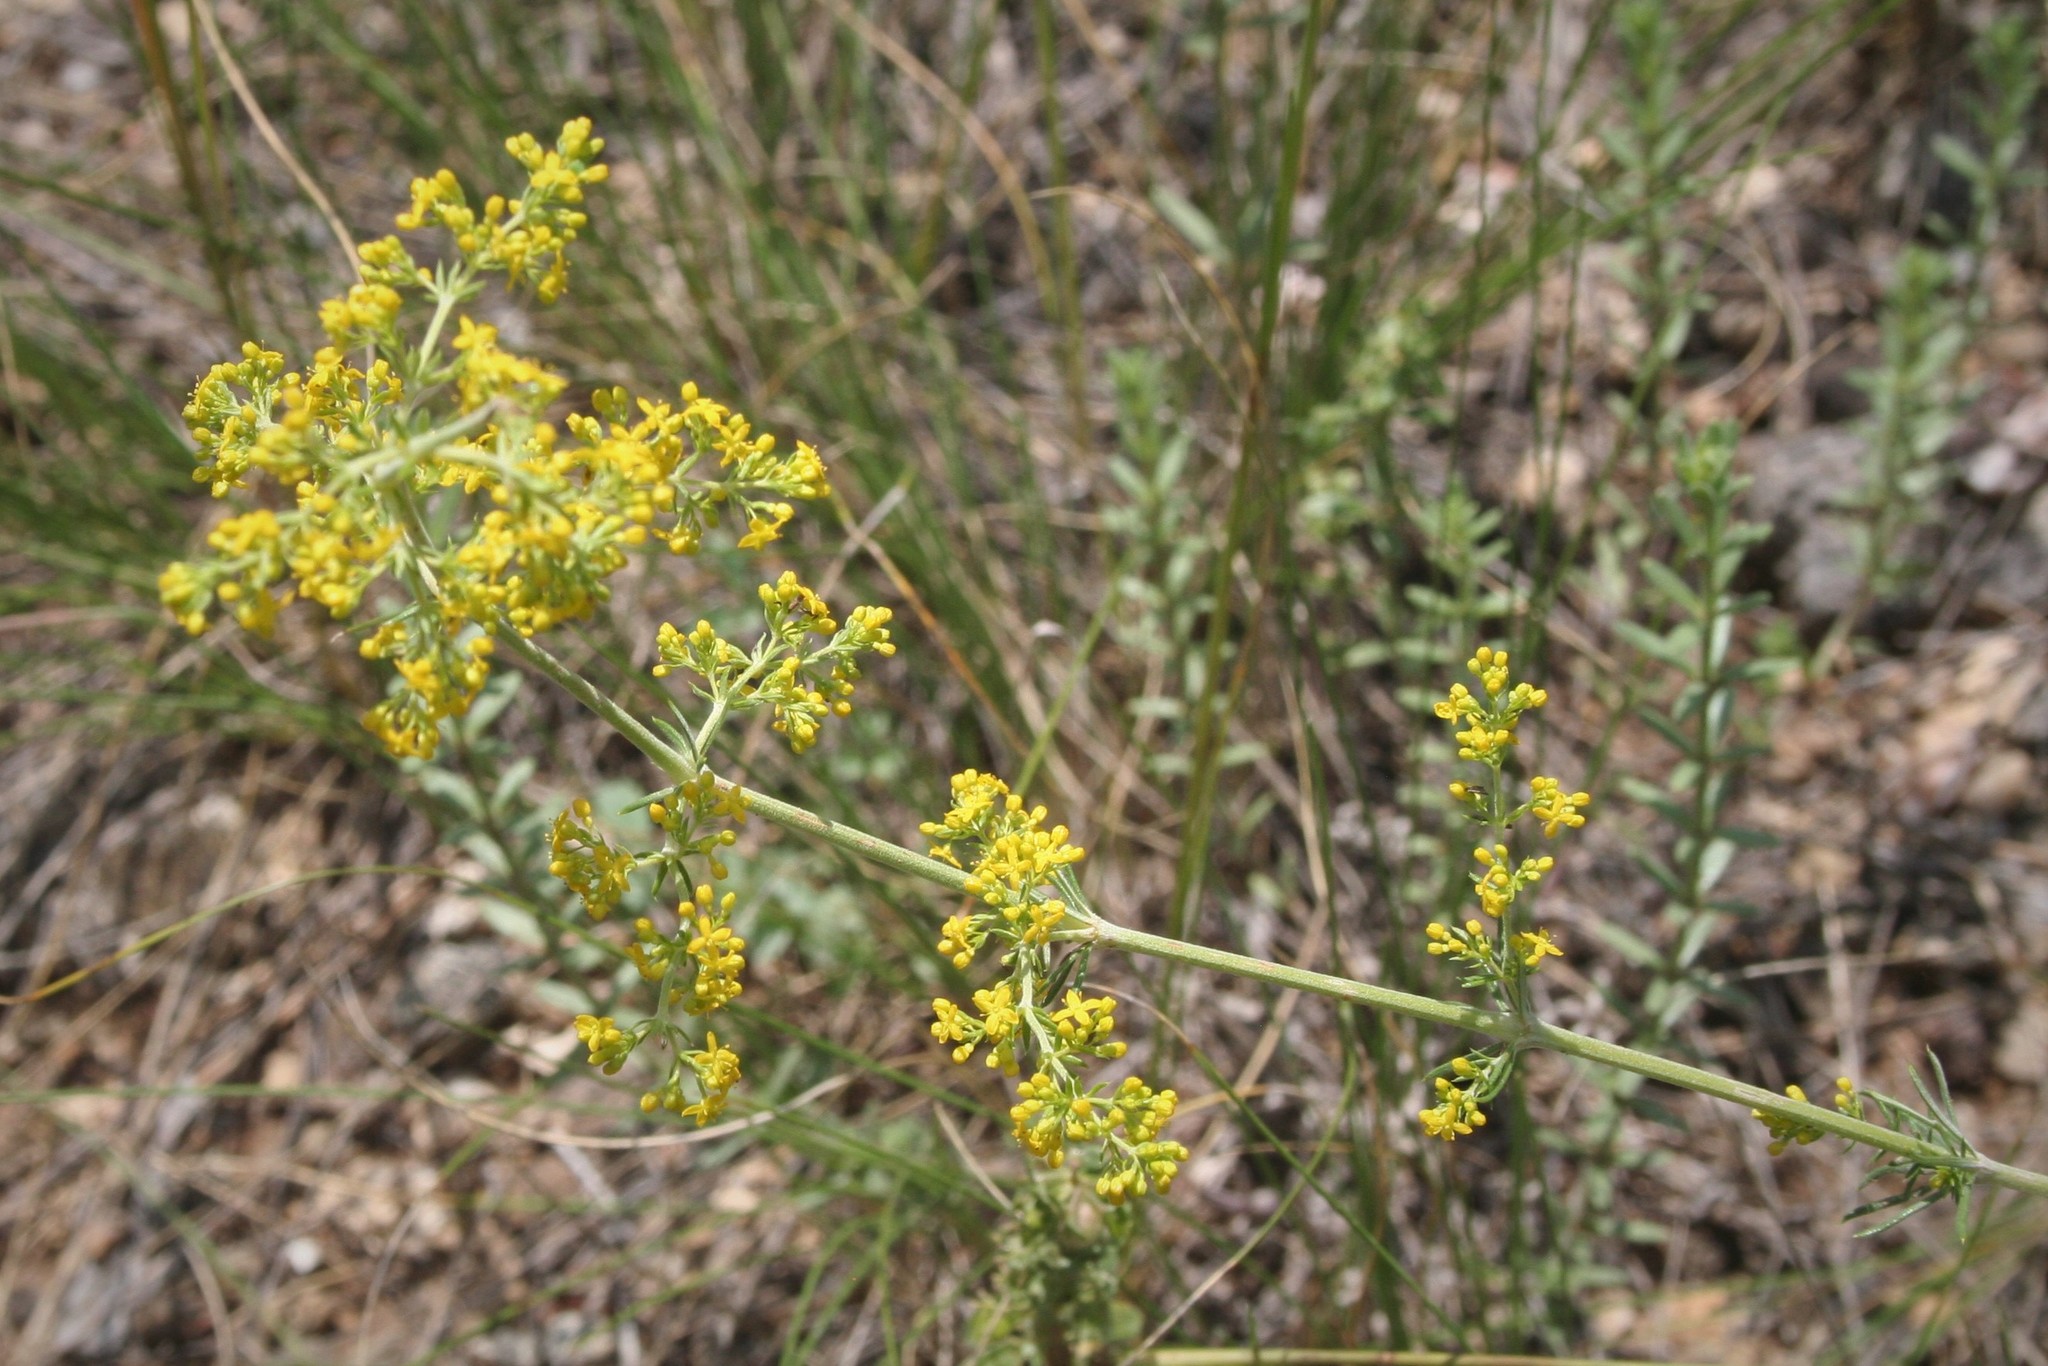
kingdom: Plantae
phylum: Tracheophyta
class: Magnoliopsida
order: Gentianales
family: Rubiaceae
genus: Galium
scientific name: Galium verum
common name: Lady's bedstraw
